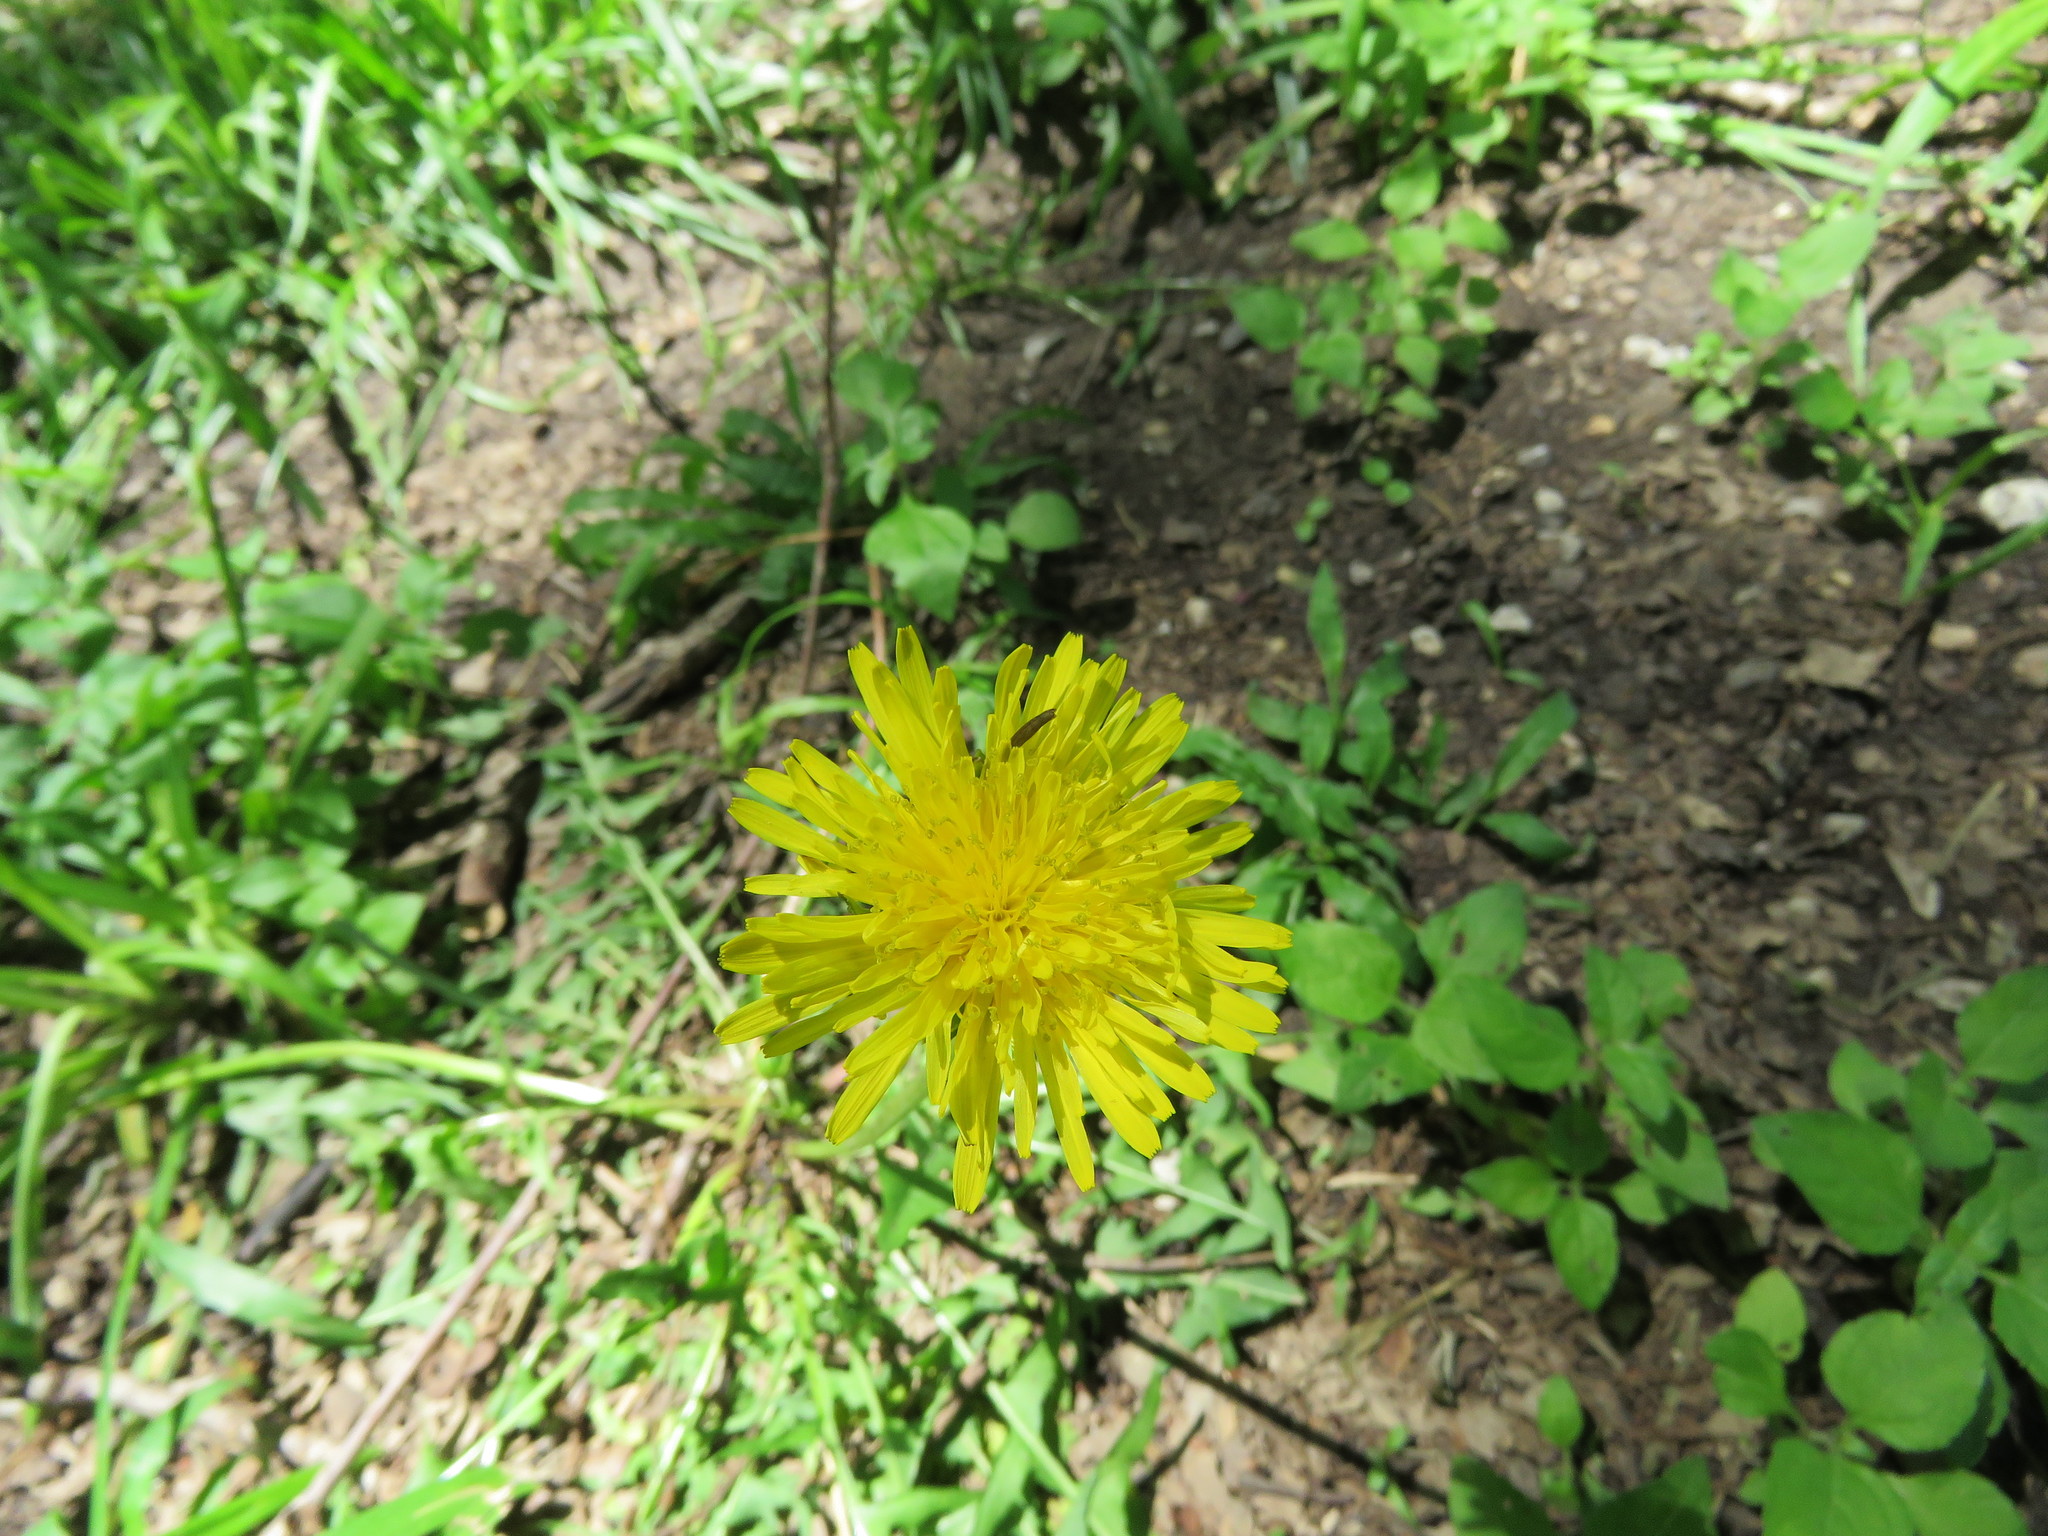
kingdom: Plantae
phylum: Tracheophyta
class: Magnoliopsida
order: Asterales
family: Asteraceae
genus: Taraxacum
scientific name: Taraxacum officinale
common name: Common dandelion
